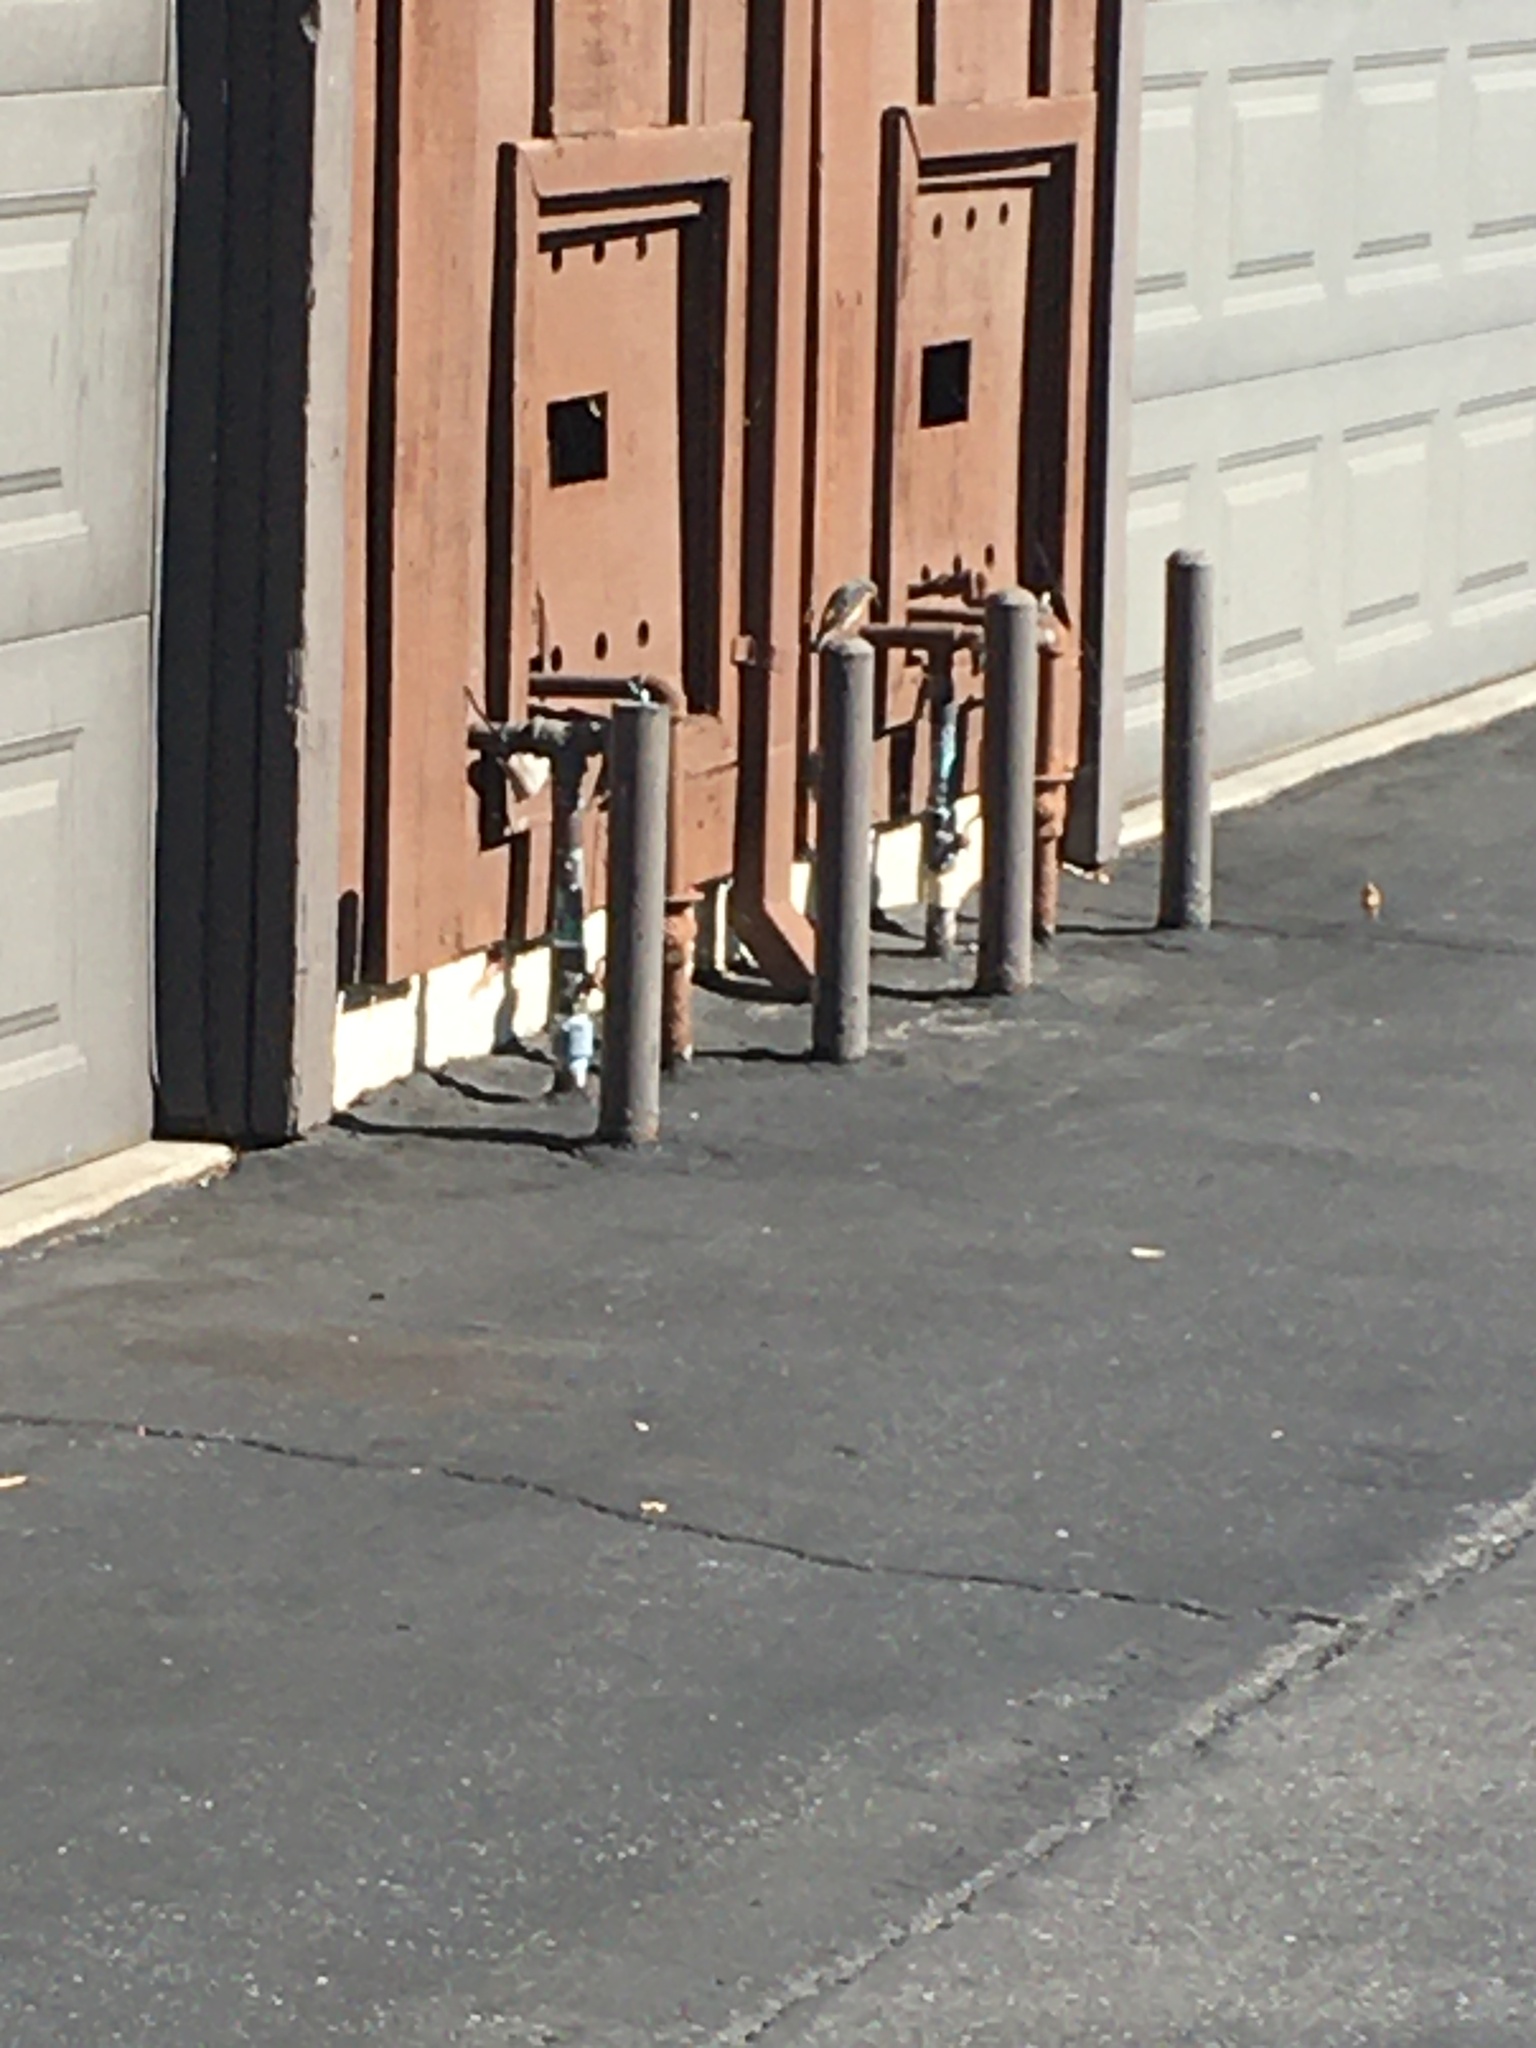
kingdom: Animalia
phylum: Chordata
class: Aves
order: Passeriformes
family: Parulidae
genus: Setophaga
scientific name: Setophaga coronata
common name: Myrtle warbler
